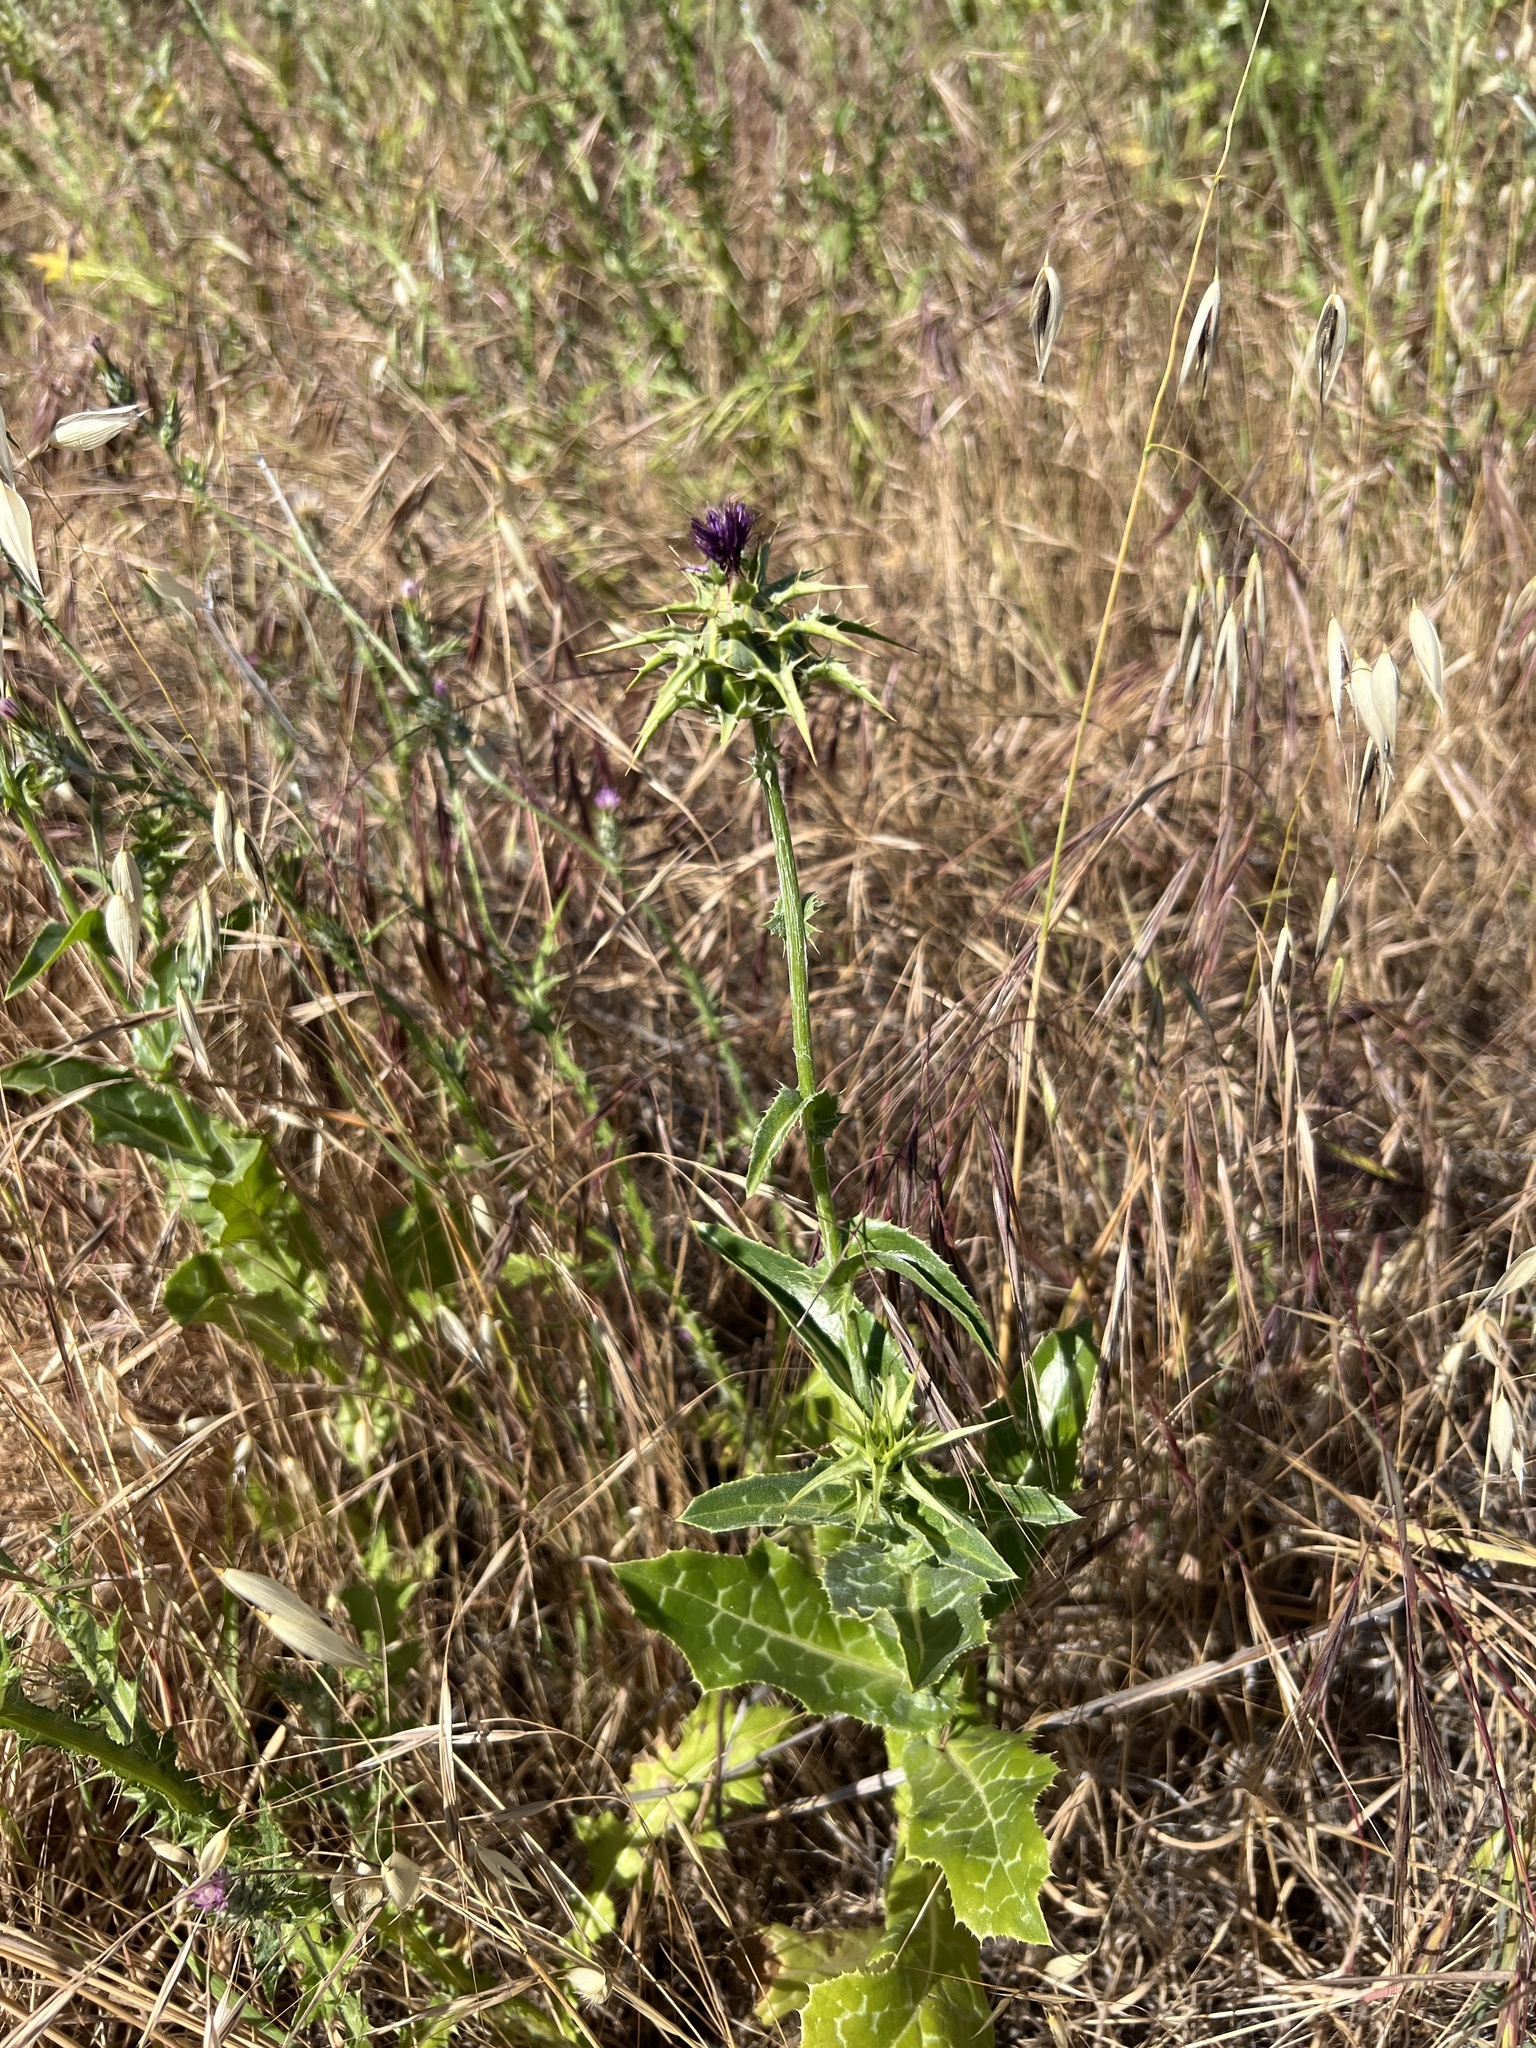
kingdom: Plantae
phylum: Tracheophyta
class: Magnoliopsida
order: Asterales
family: Asteraceae
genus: Silybum
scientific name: Silybum marianum
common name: Milk thistle
